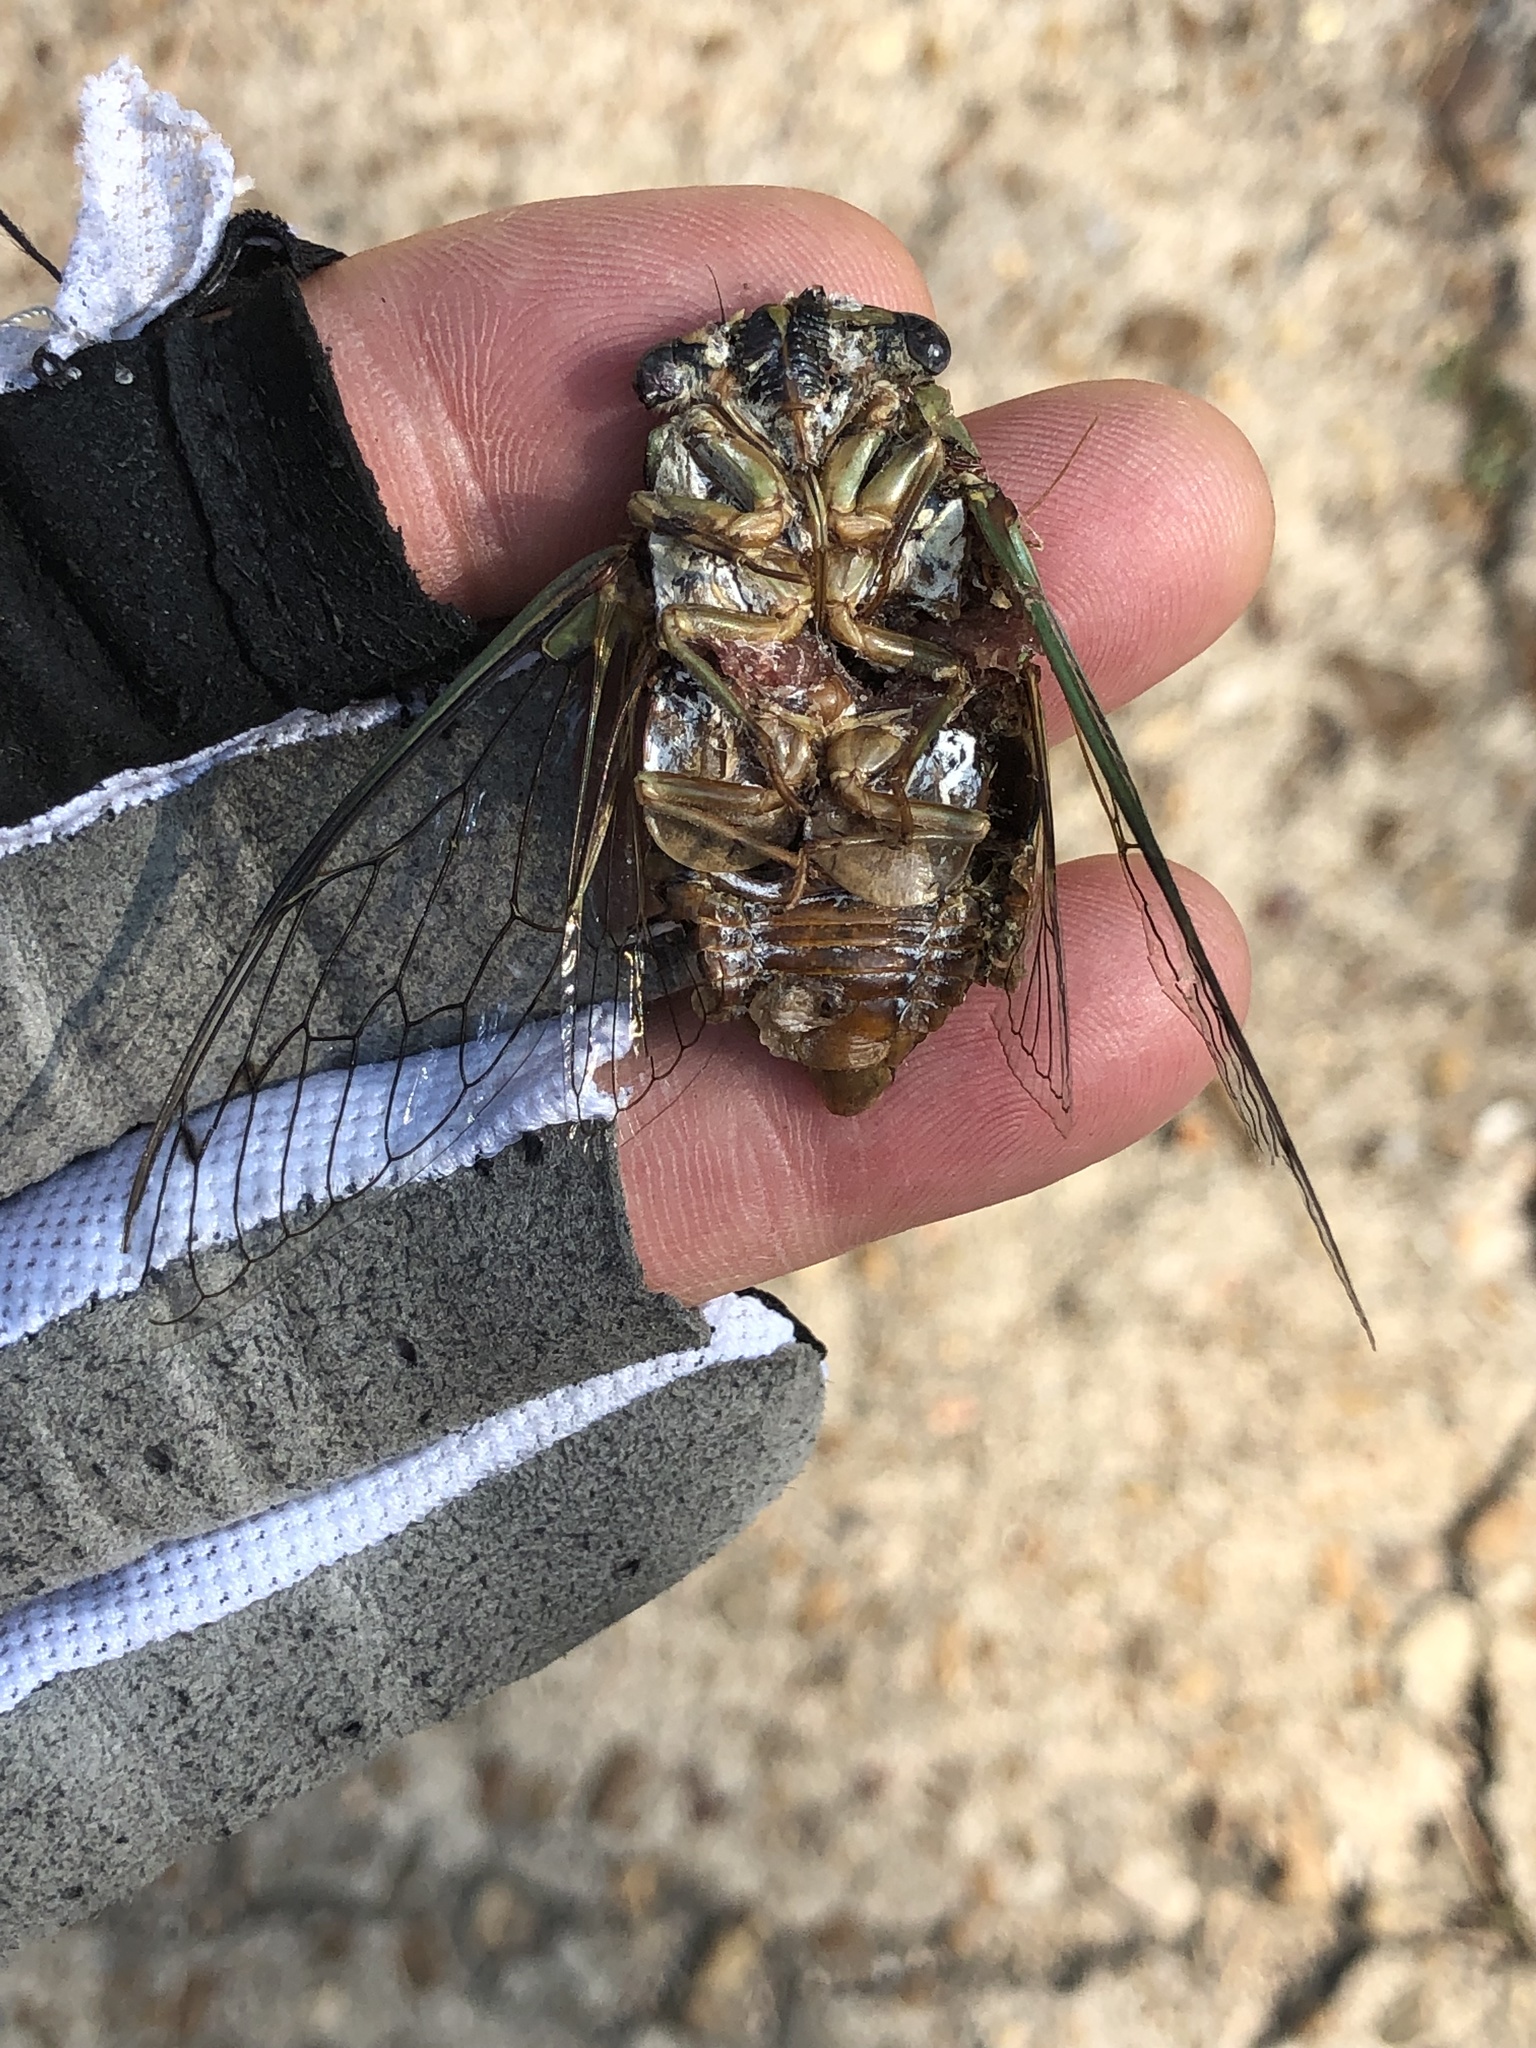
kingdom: Animalia
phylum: Arthropoda
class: Insecta
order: Hemiptera
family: Cicadidae
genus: Megatibicen
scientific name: Megatibicen resh
